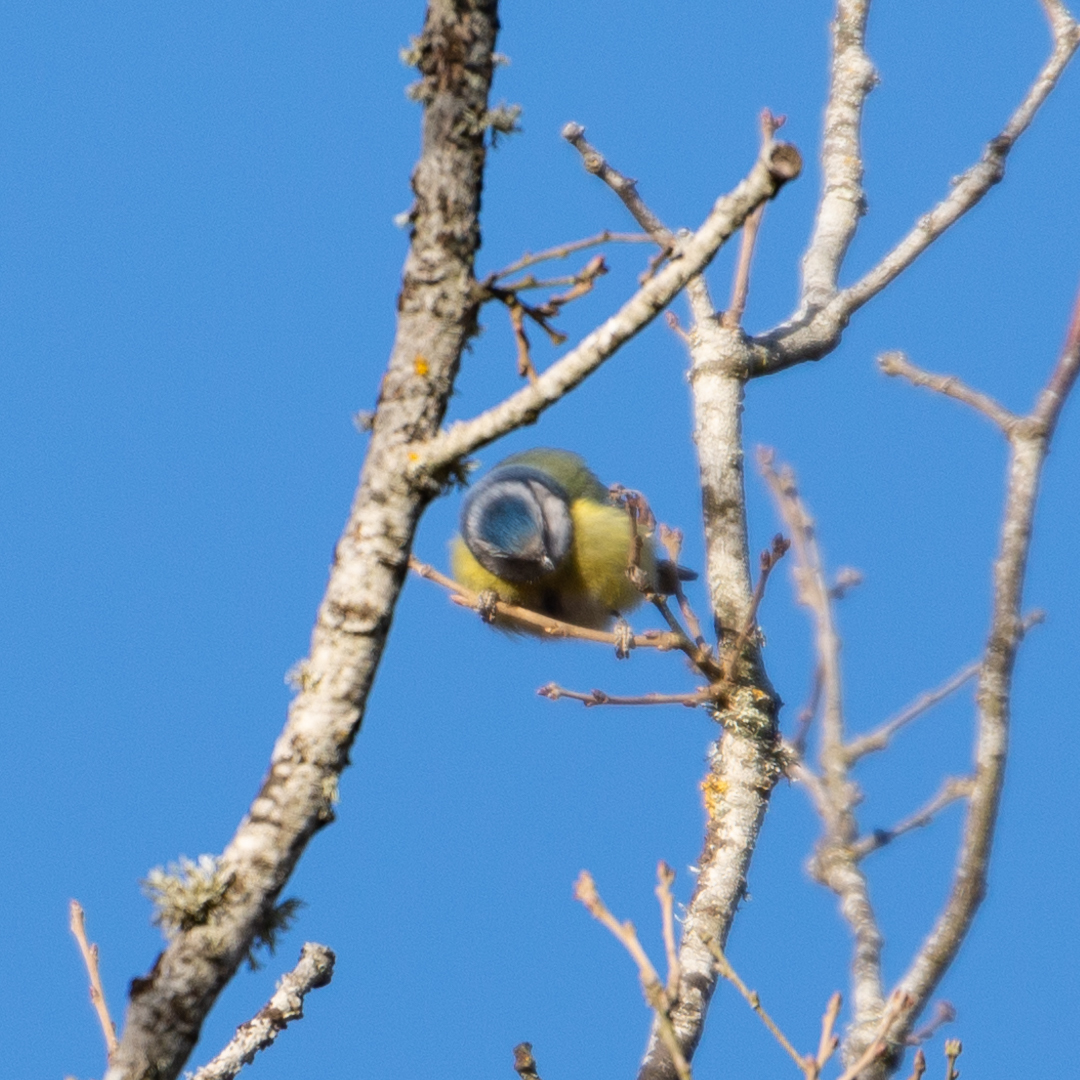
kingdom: Animalia
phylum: Chordata
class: Aves
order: Passeriformes
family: Paridae
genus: Cyanistes
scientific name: Cyanistes caeruleus
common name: Eurasian blue tit
